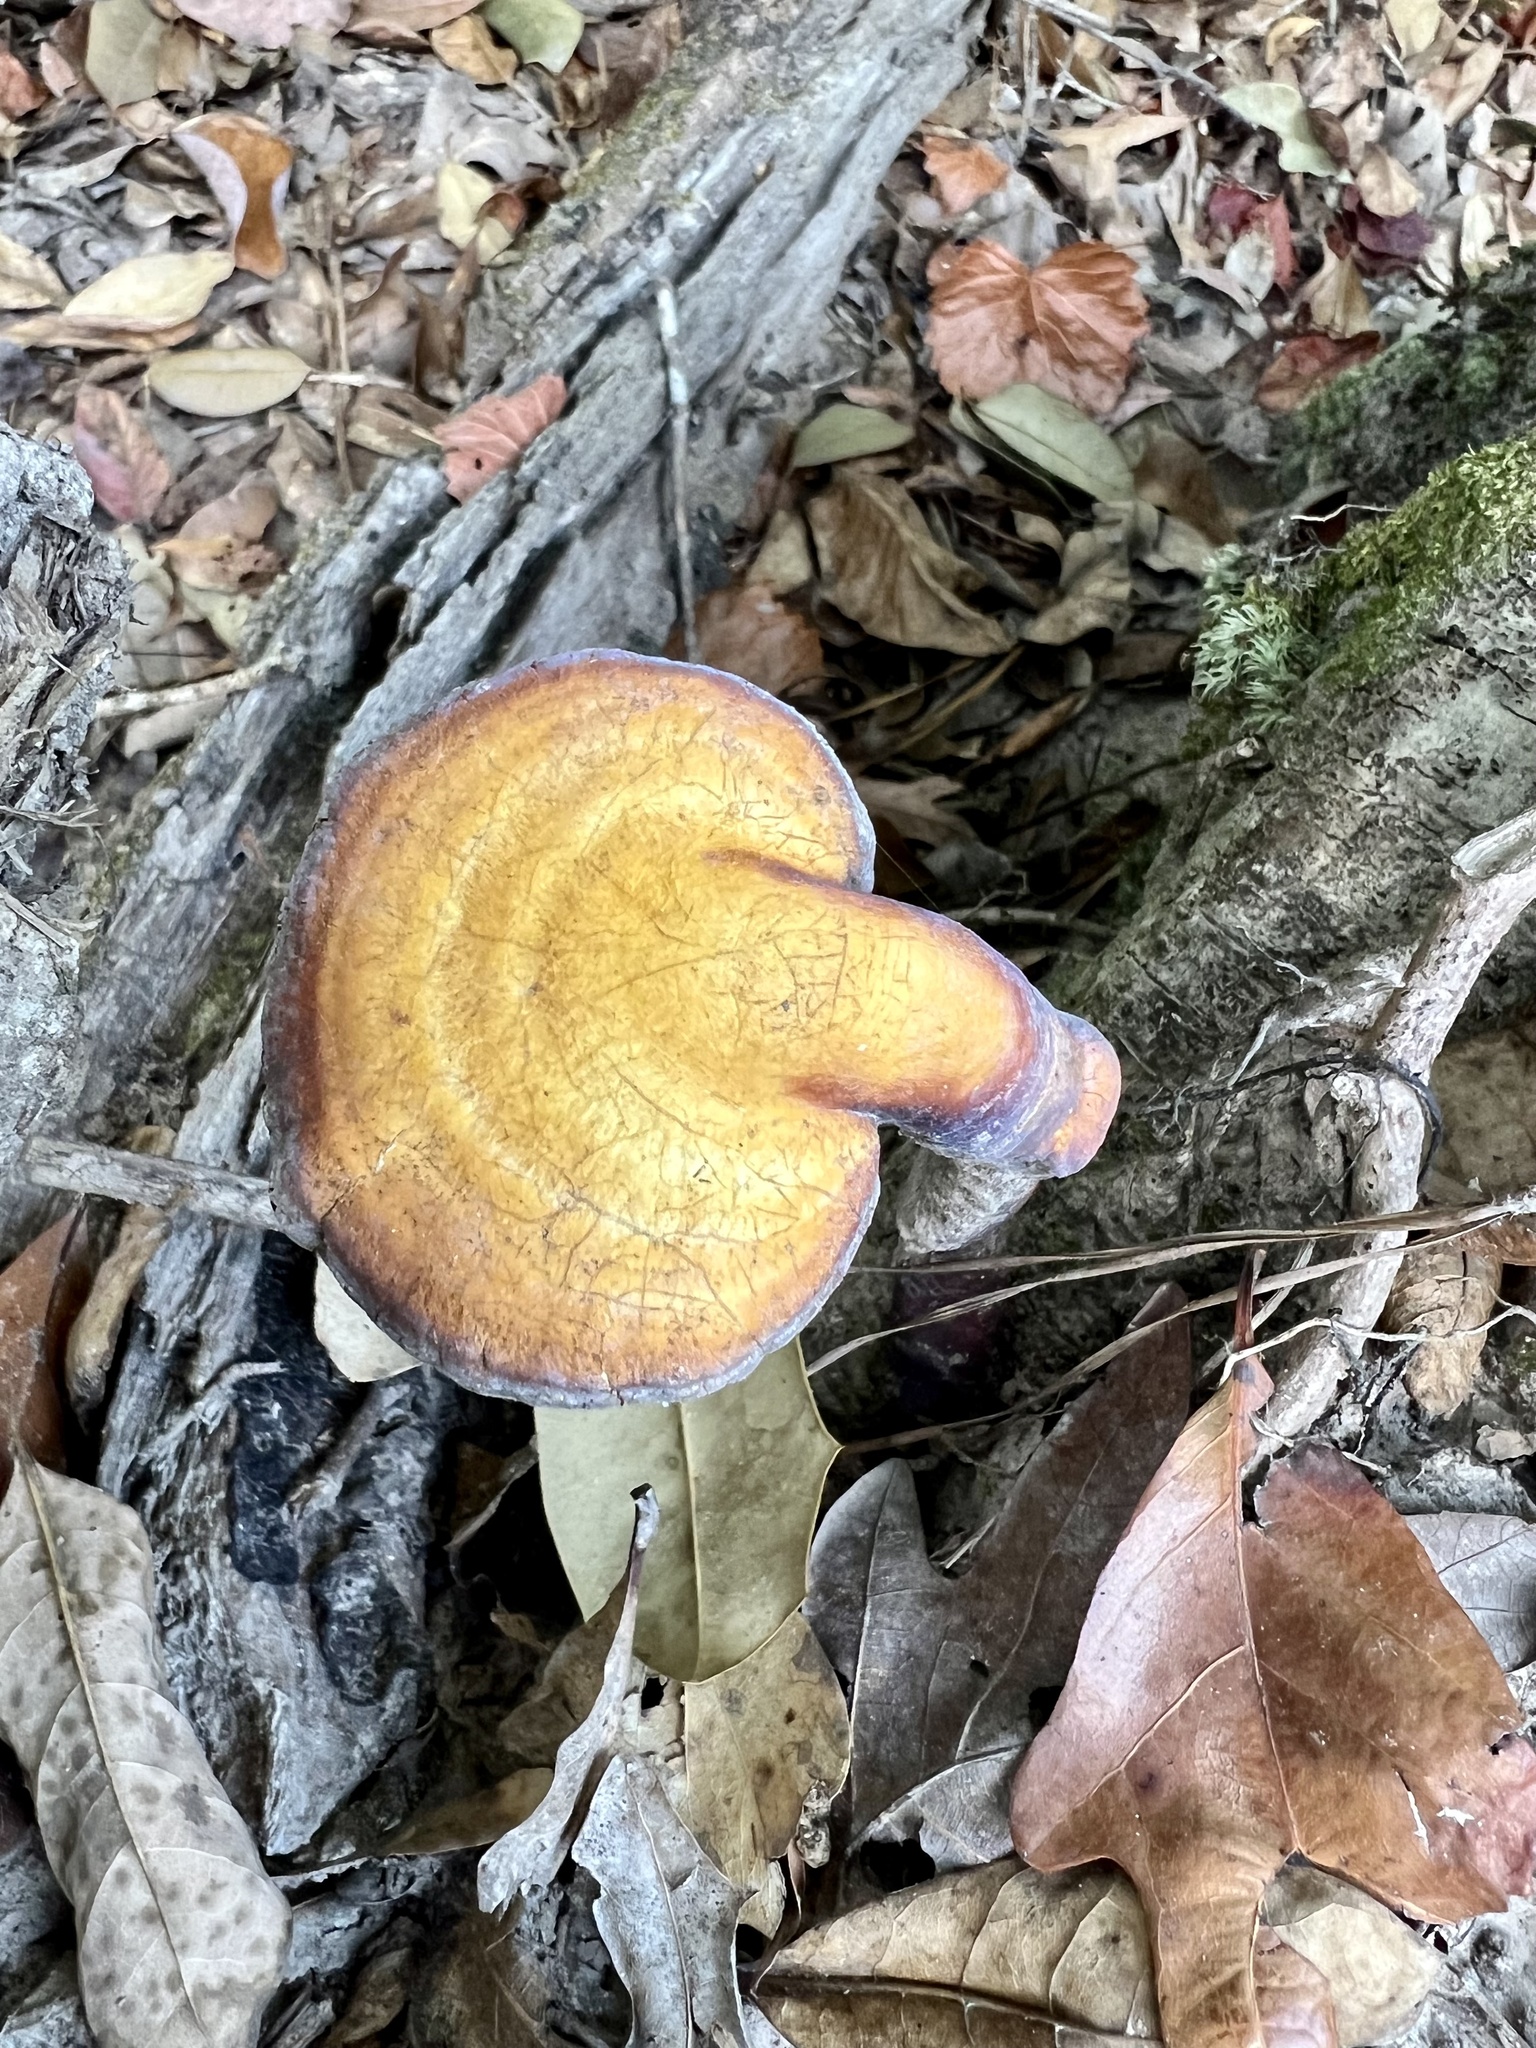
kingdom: Fungi
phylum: Basidiomycota
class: Agaricomycetes
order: Polyporales
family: Polyporaceae
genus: Ganoderma
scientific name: Ganoderma curtisii
